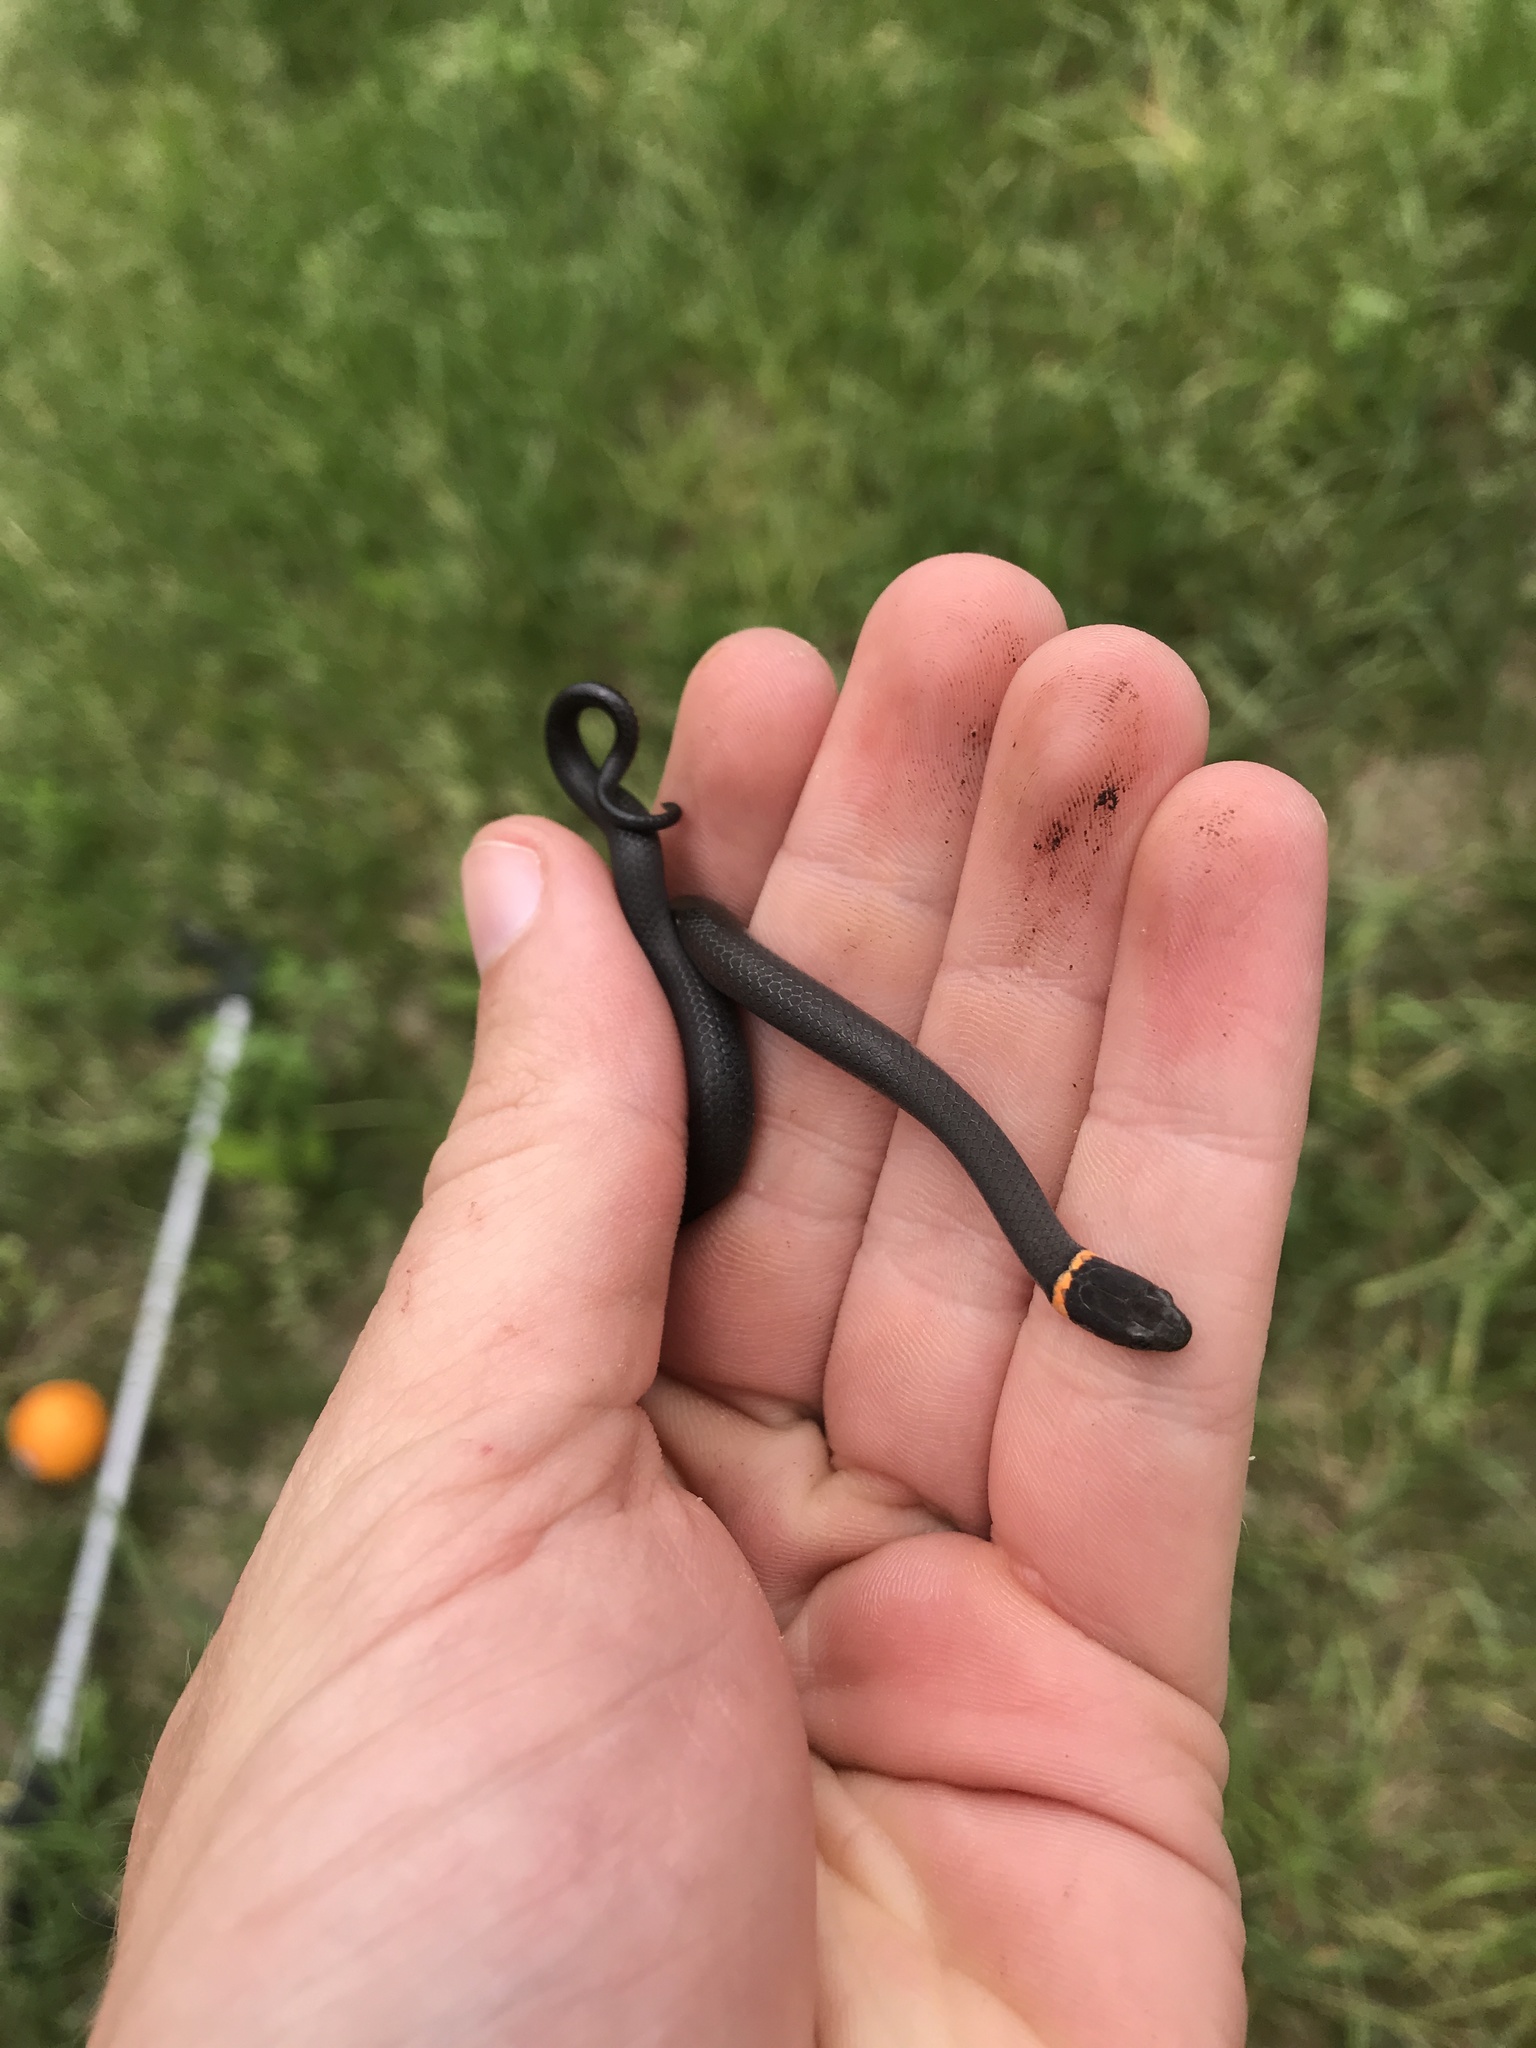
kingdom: Animalia
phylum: Chordata
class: Squamata
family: Colubridae
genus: Diadophis
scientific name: Diadophis punctatus
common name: Ringneck snake
